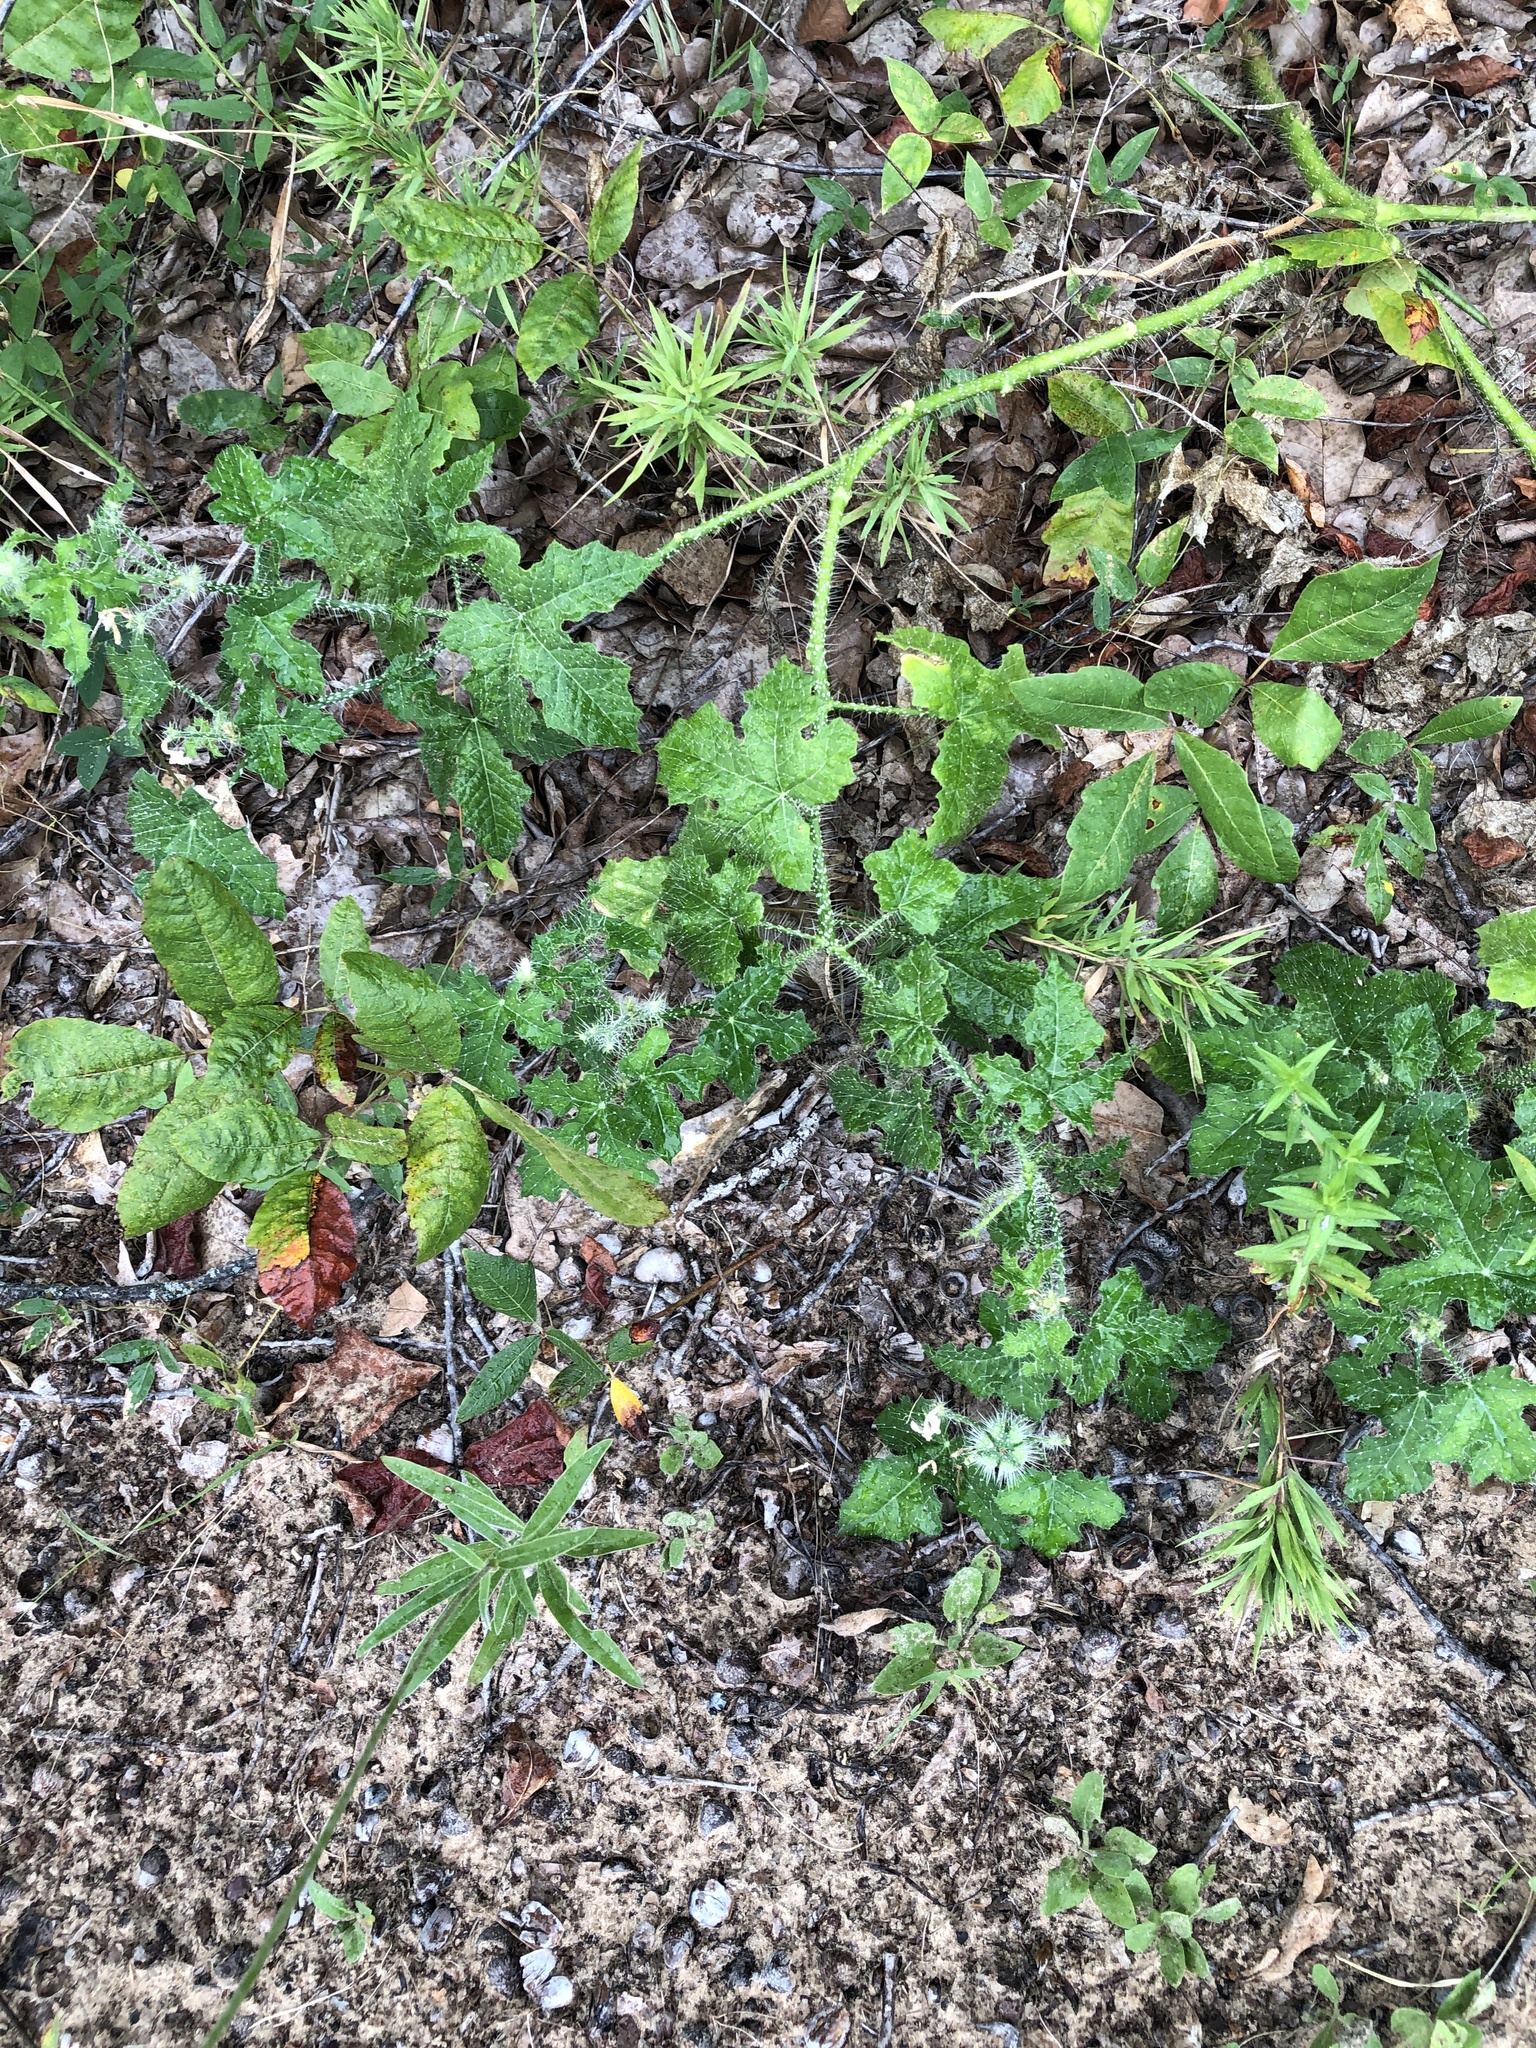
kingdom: Plantae
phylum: Tracheophyta
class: Magnoliopsida
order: Malpighiales
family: Euphorbiaceae
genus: Cnidoscolus
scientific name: Cnidoscolus texanus
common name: Texas bull-nettle
